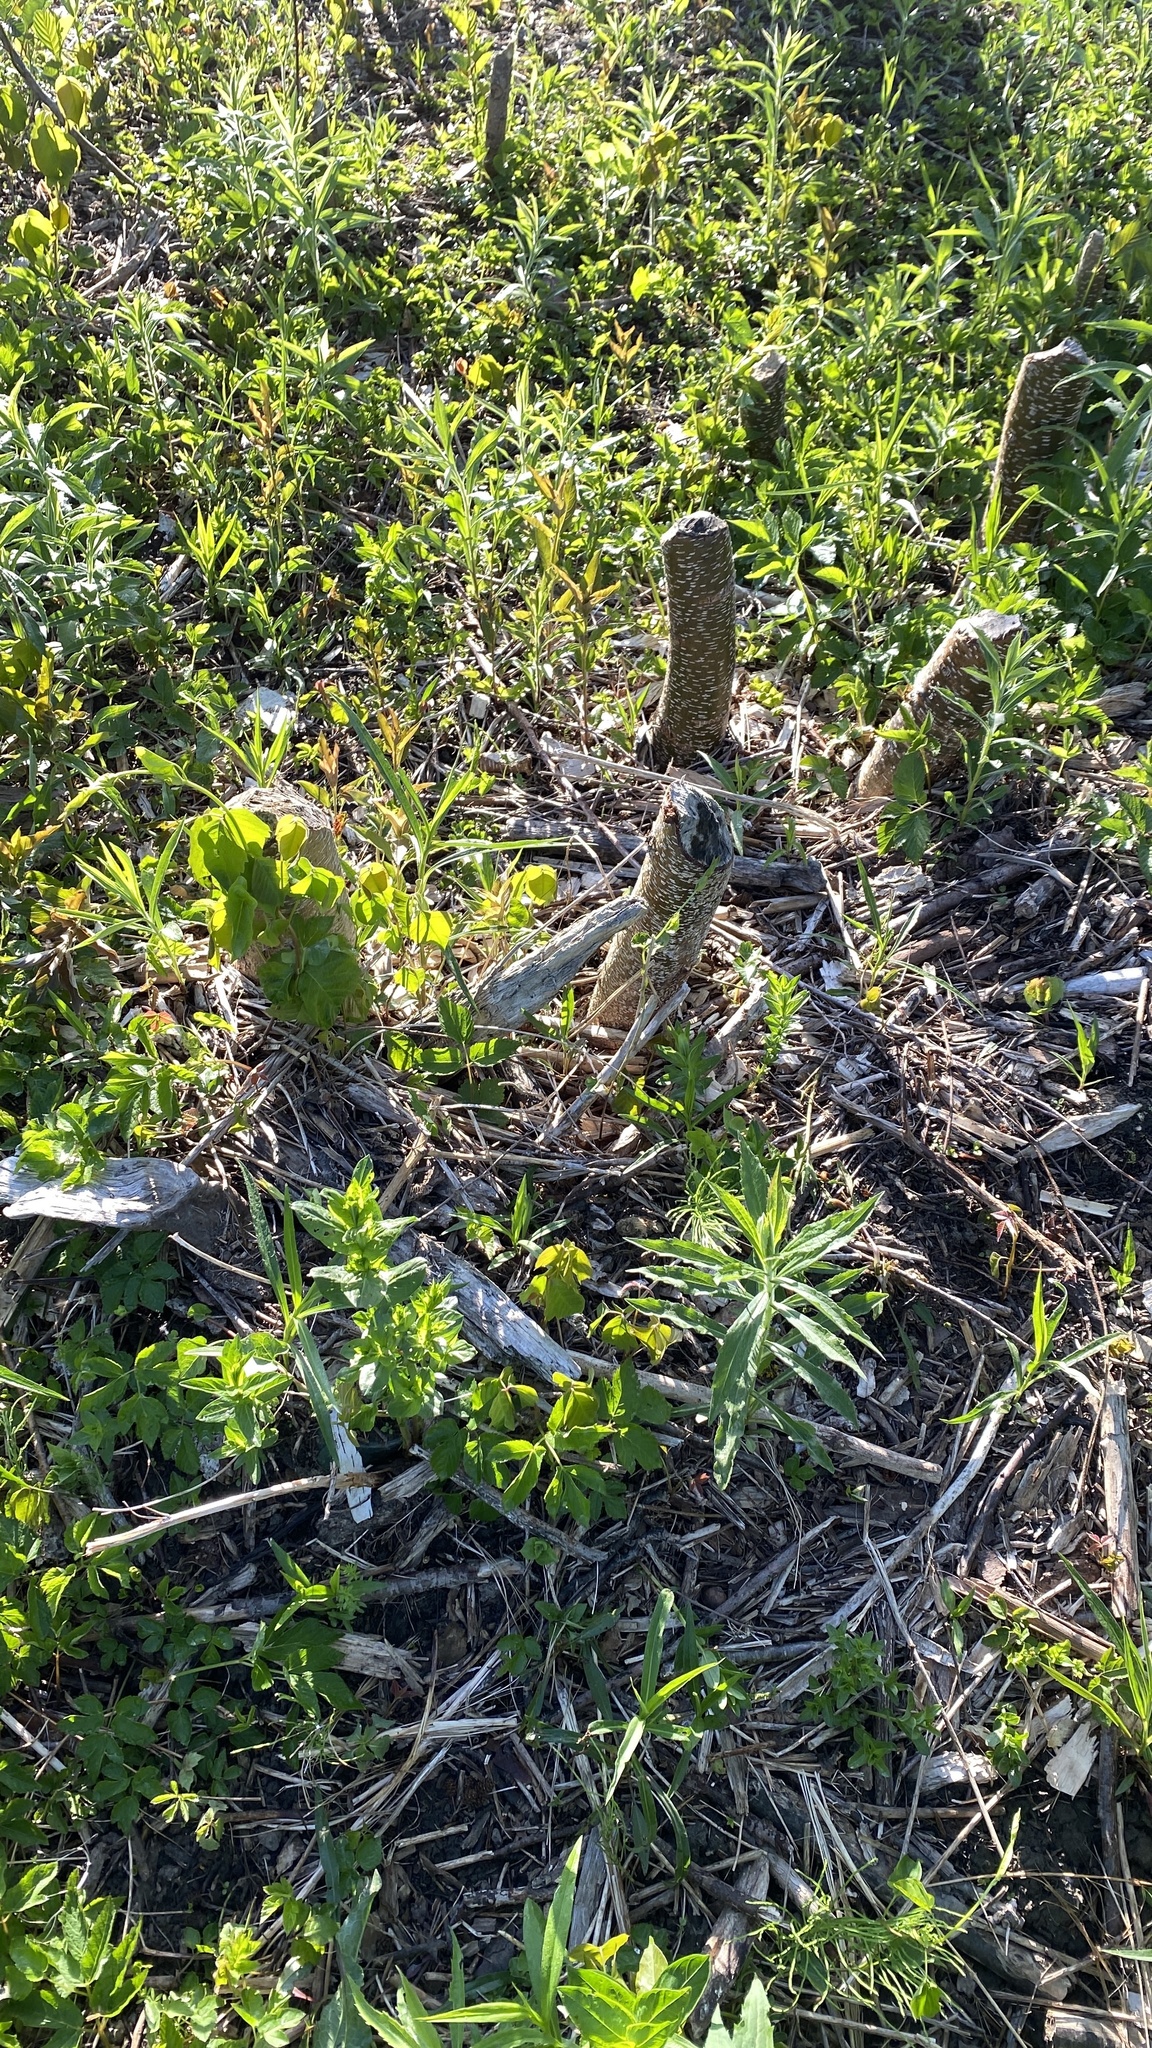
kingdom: Animalia
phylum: Chordata
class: Mammalia
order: Rodentia
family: Castoridae
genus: Castor
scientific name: Castor canadensis
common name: American beaver
